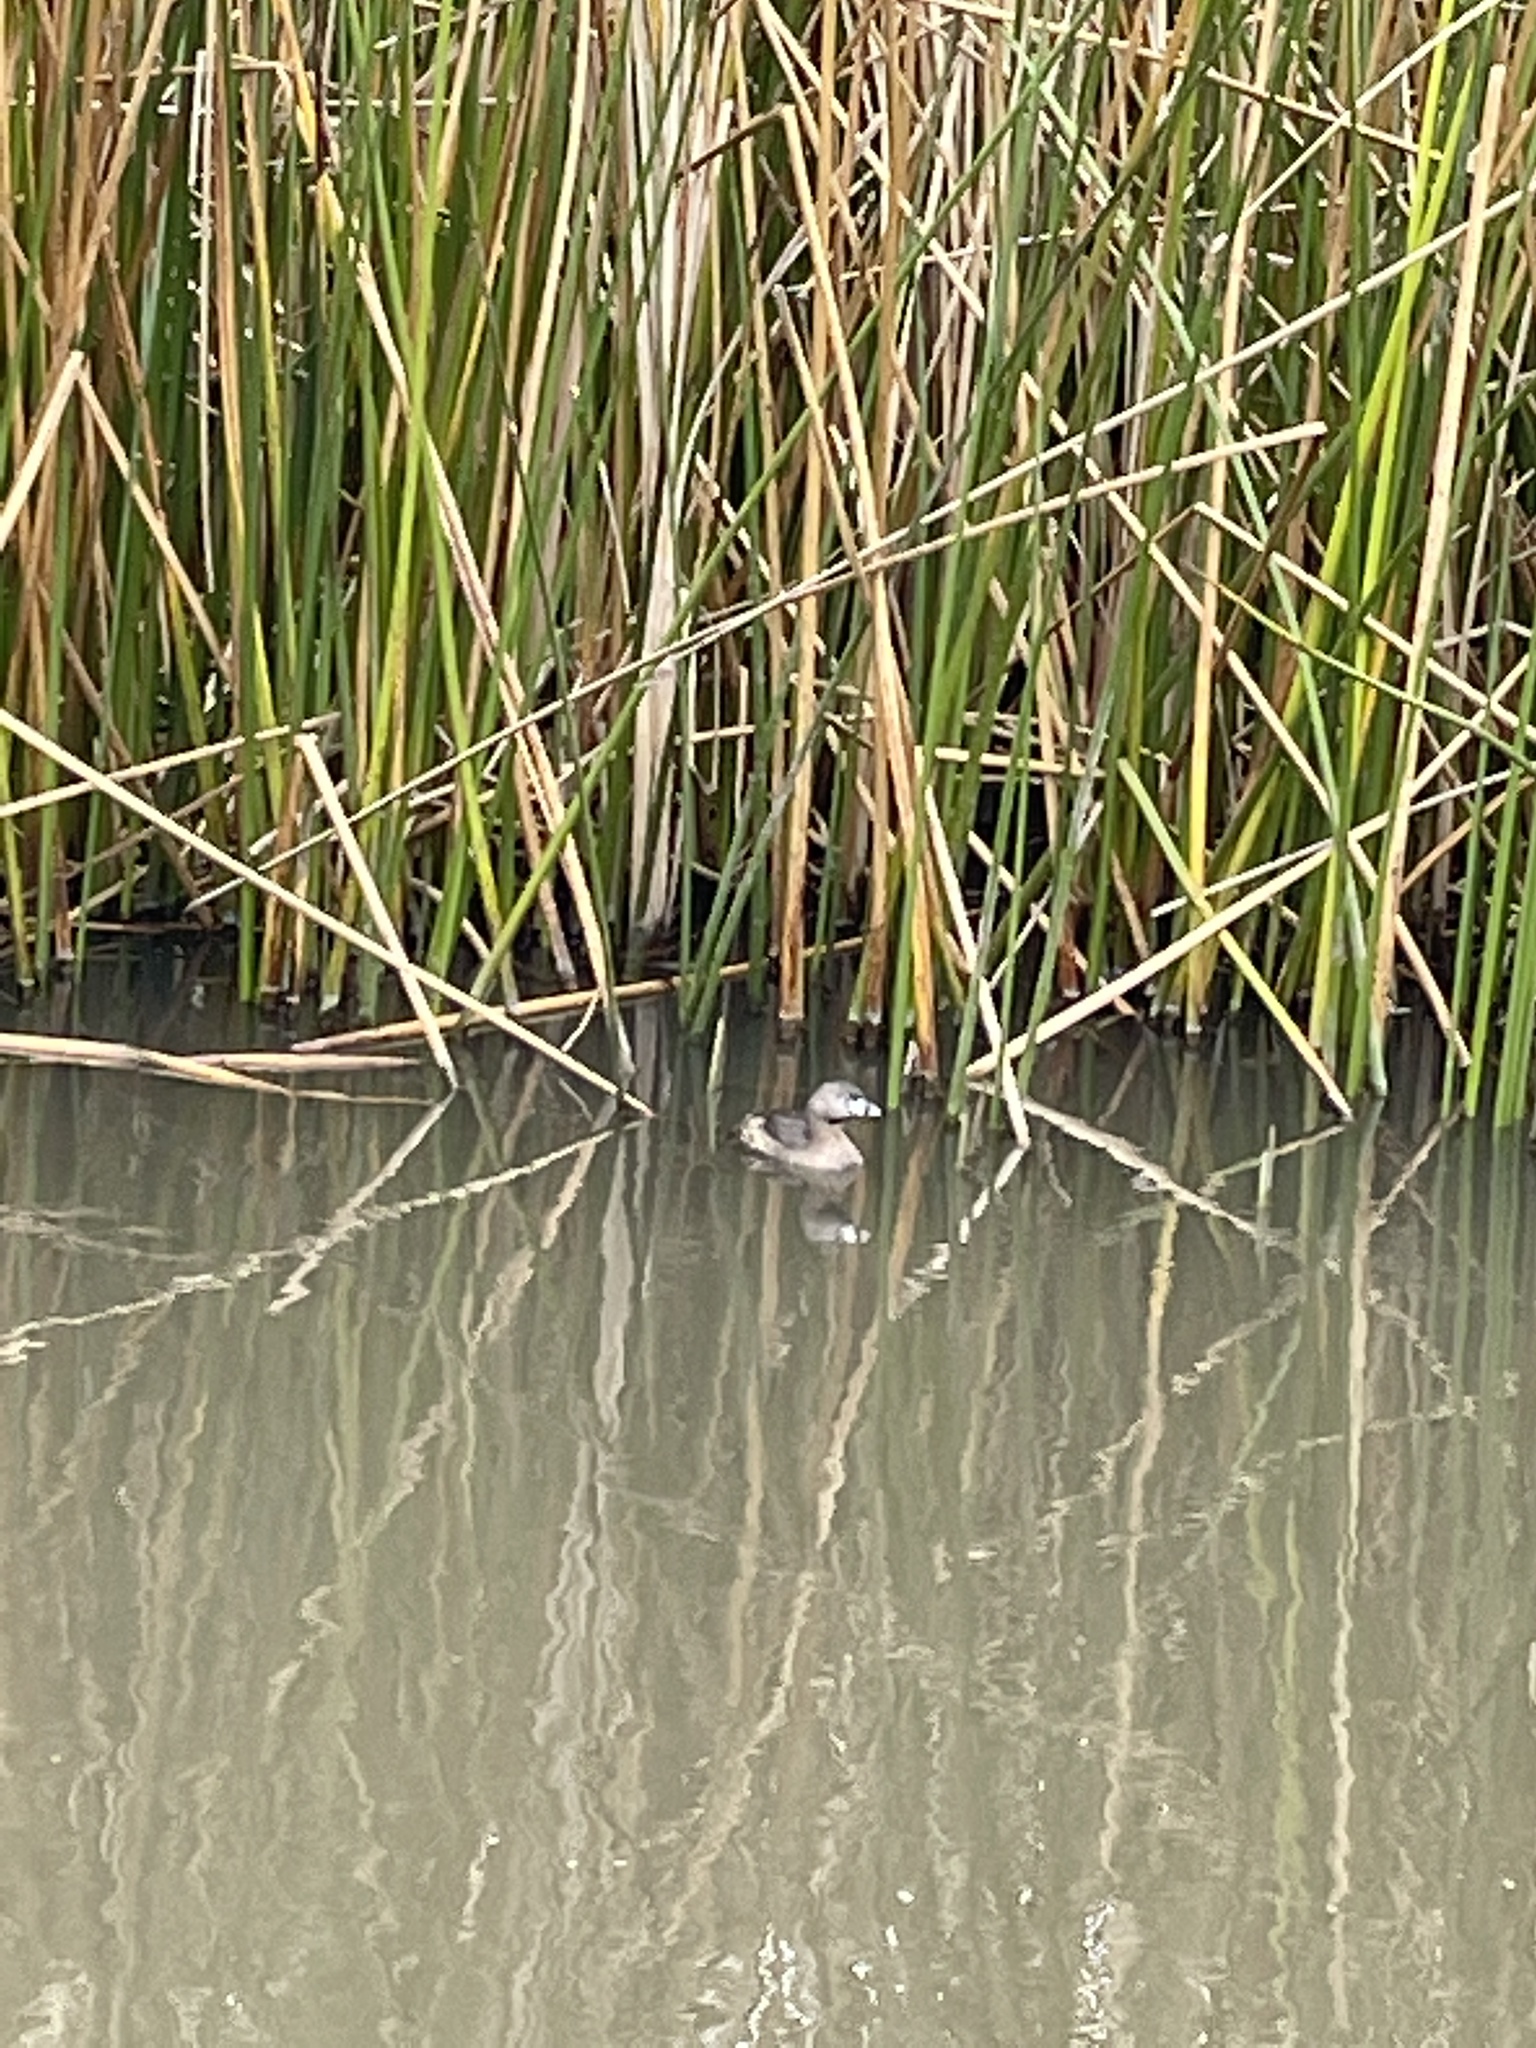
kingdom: Animalia
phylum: Chordata
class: Aves
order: Podicipediformes
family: Podicipedidae
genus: Podilymbus
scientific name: Podilymbus podiceps
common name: Pied-billed grebe
